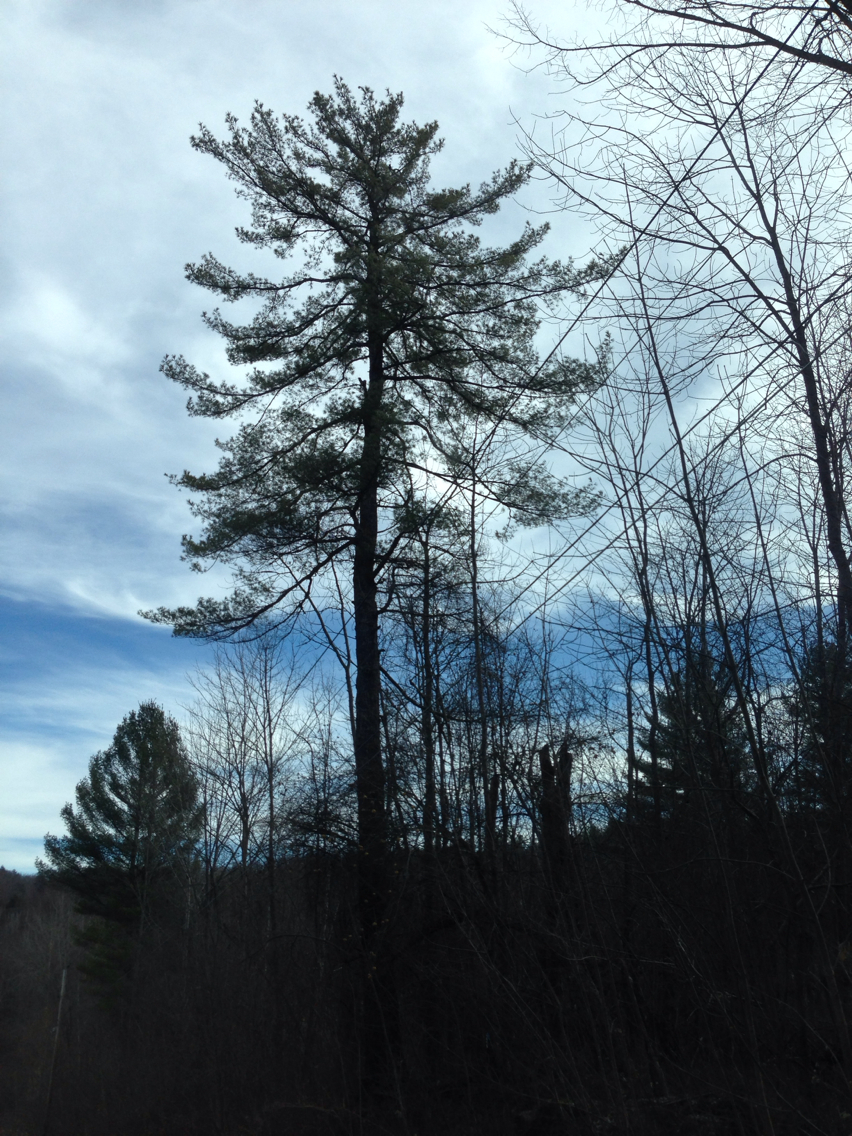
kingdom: Plantae
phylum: Tracheophyta
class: Pinopsida
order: Pinales
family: Pinaceae
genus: Pinus
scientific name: Pinus strobus
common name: Weymouth pine
